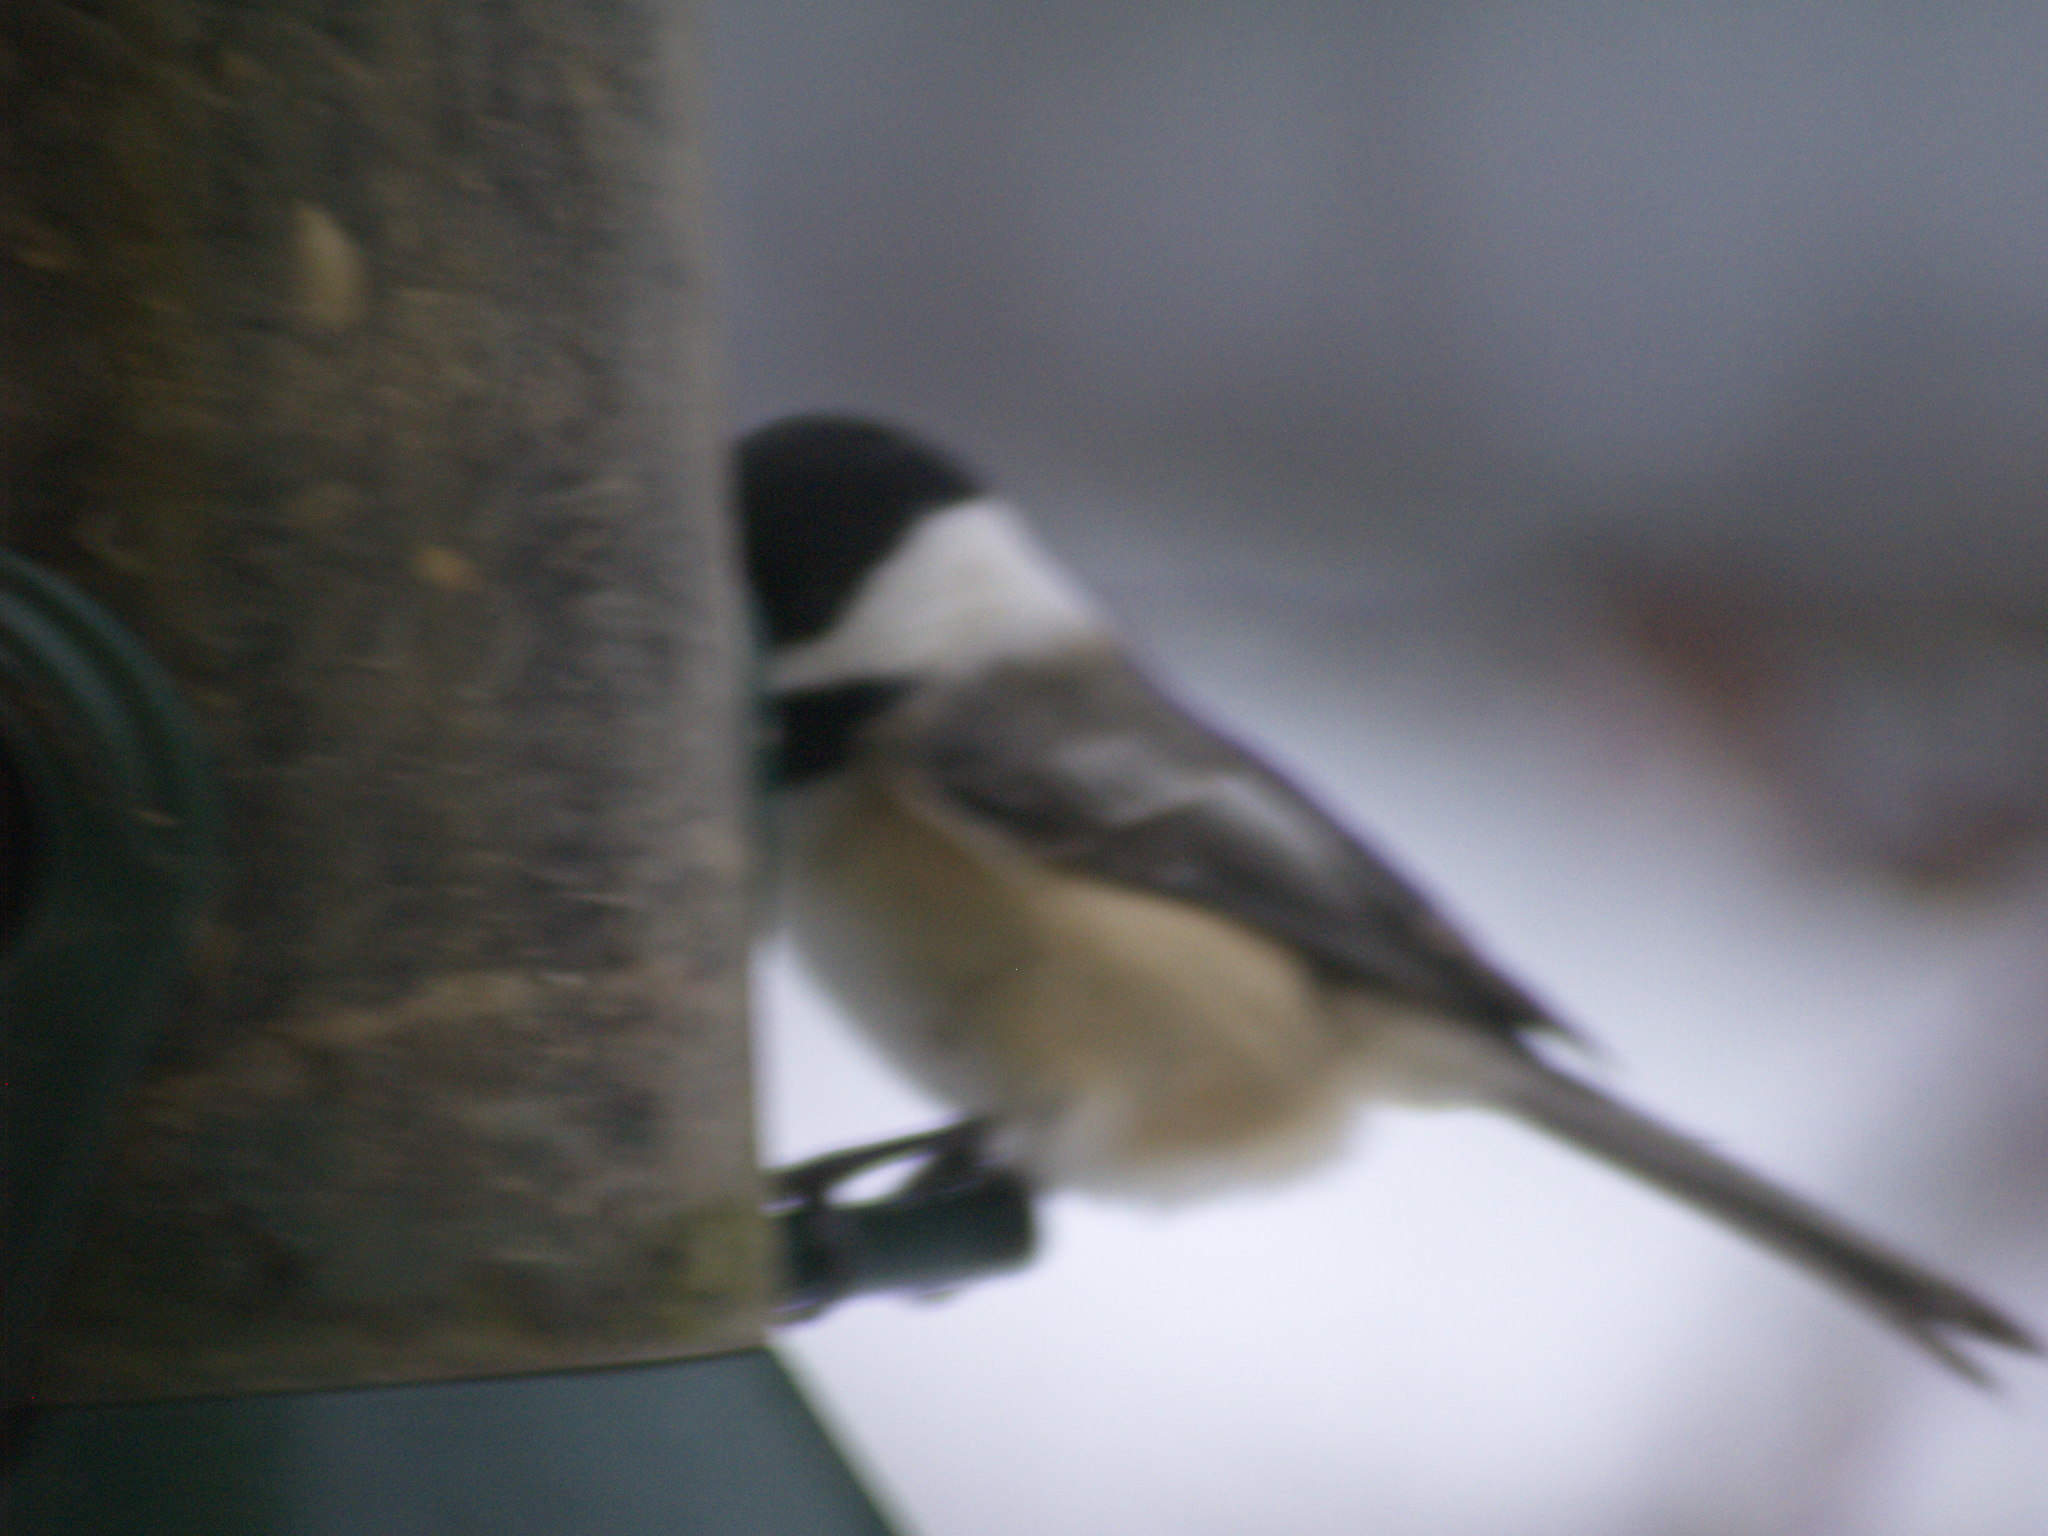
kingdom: Animalia
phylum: Chordata
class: Aves
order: Passeriformes
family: Paridae
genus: Poecile
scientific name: Poecile atricapillus
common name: Black-capped chickadee
